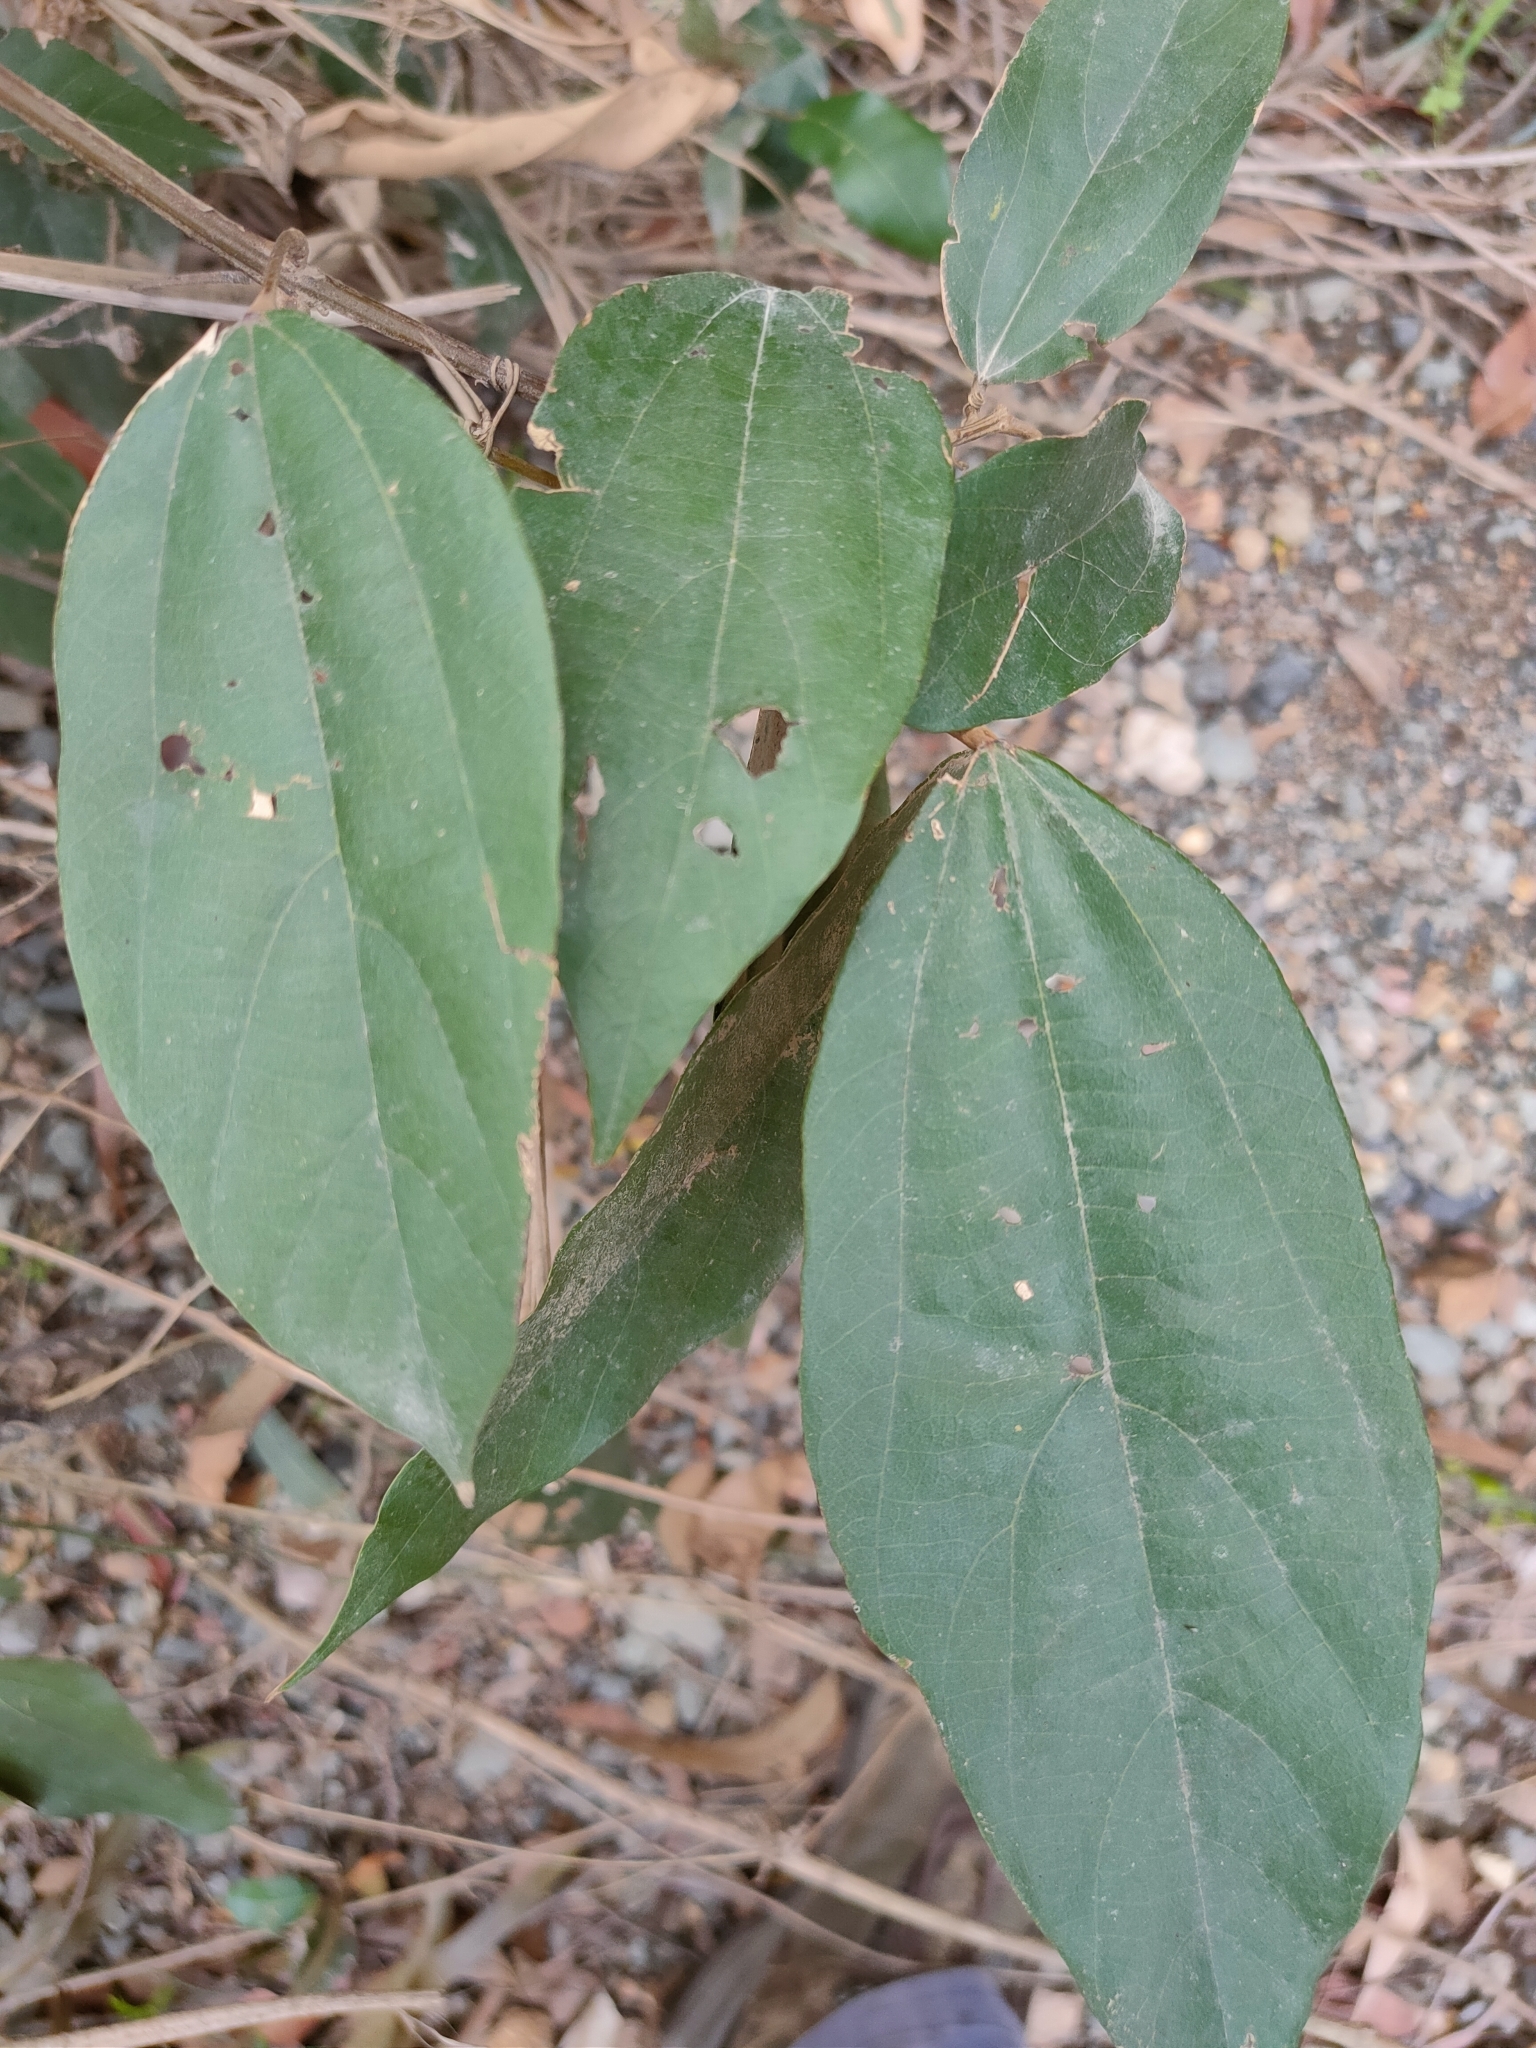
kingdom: Plantae
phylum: Tracheophyta
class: Magnoliopsida
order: Malpighiales
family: Euphorbiaceae
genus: Mallotus
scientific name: Mallotus philippensis
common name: Kamala tree
